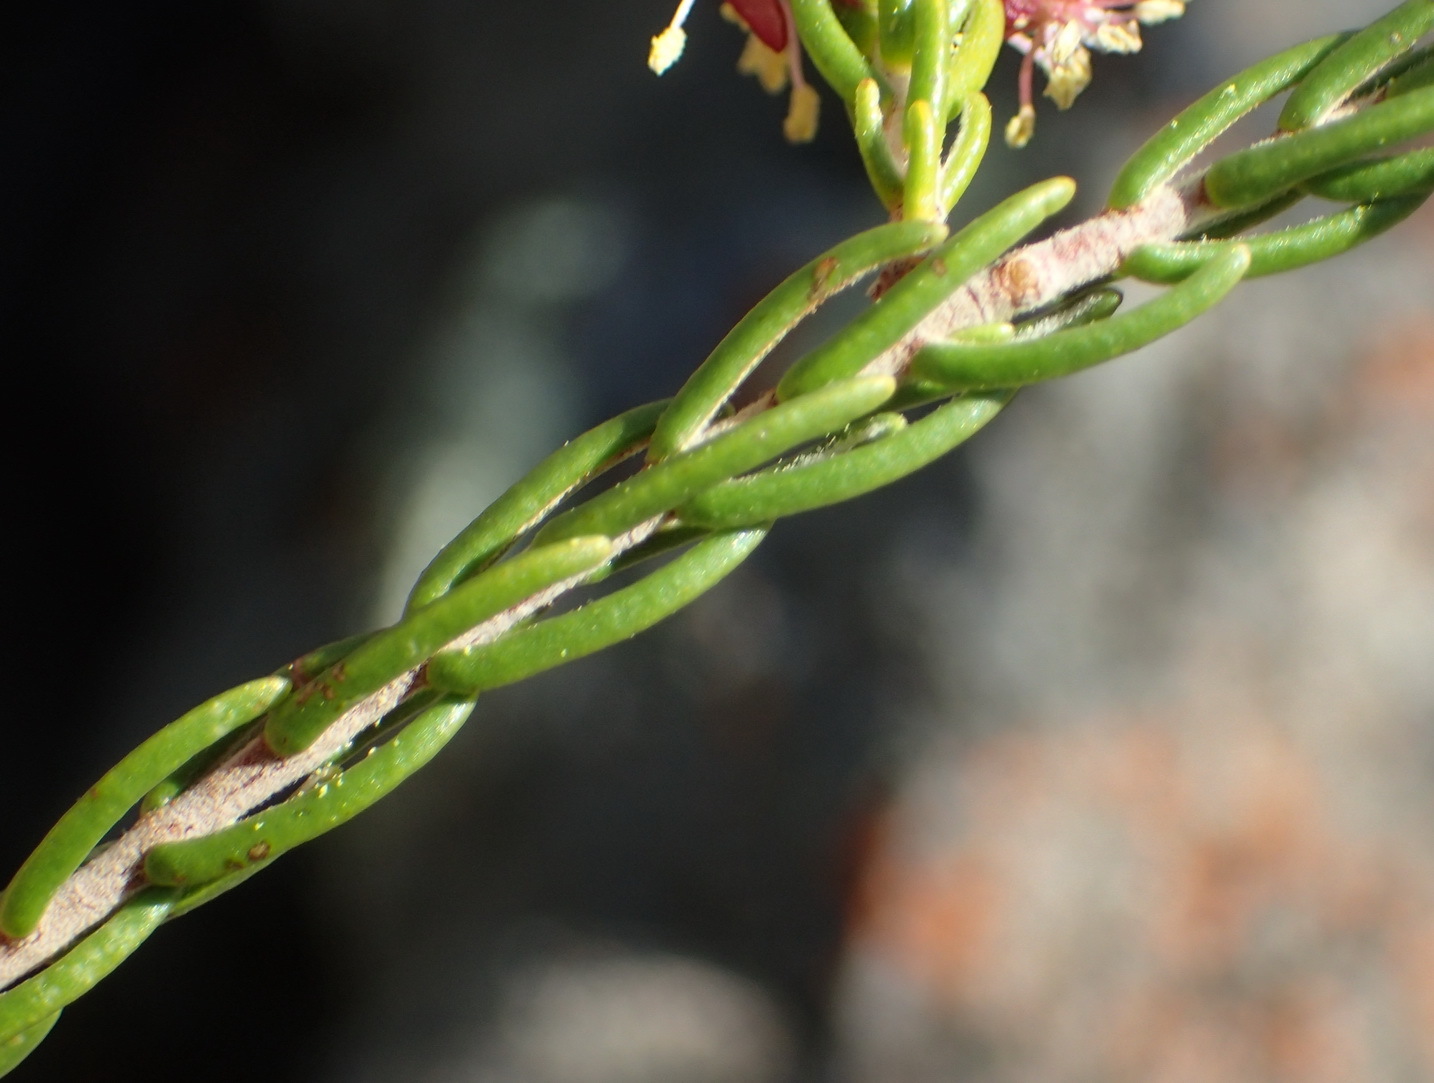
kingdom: Plantae
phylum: Tracheophyta
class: Magnoliopsida
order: Malvales
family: Thymelaeaceae
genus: Passerina
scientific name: Passerina obtusifolia
